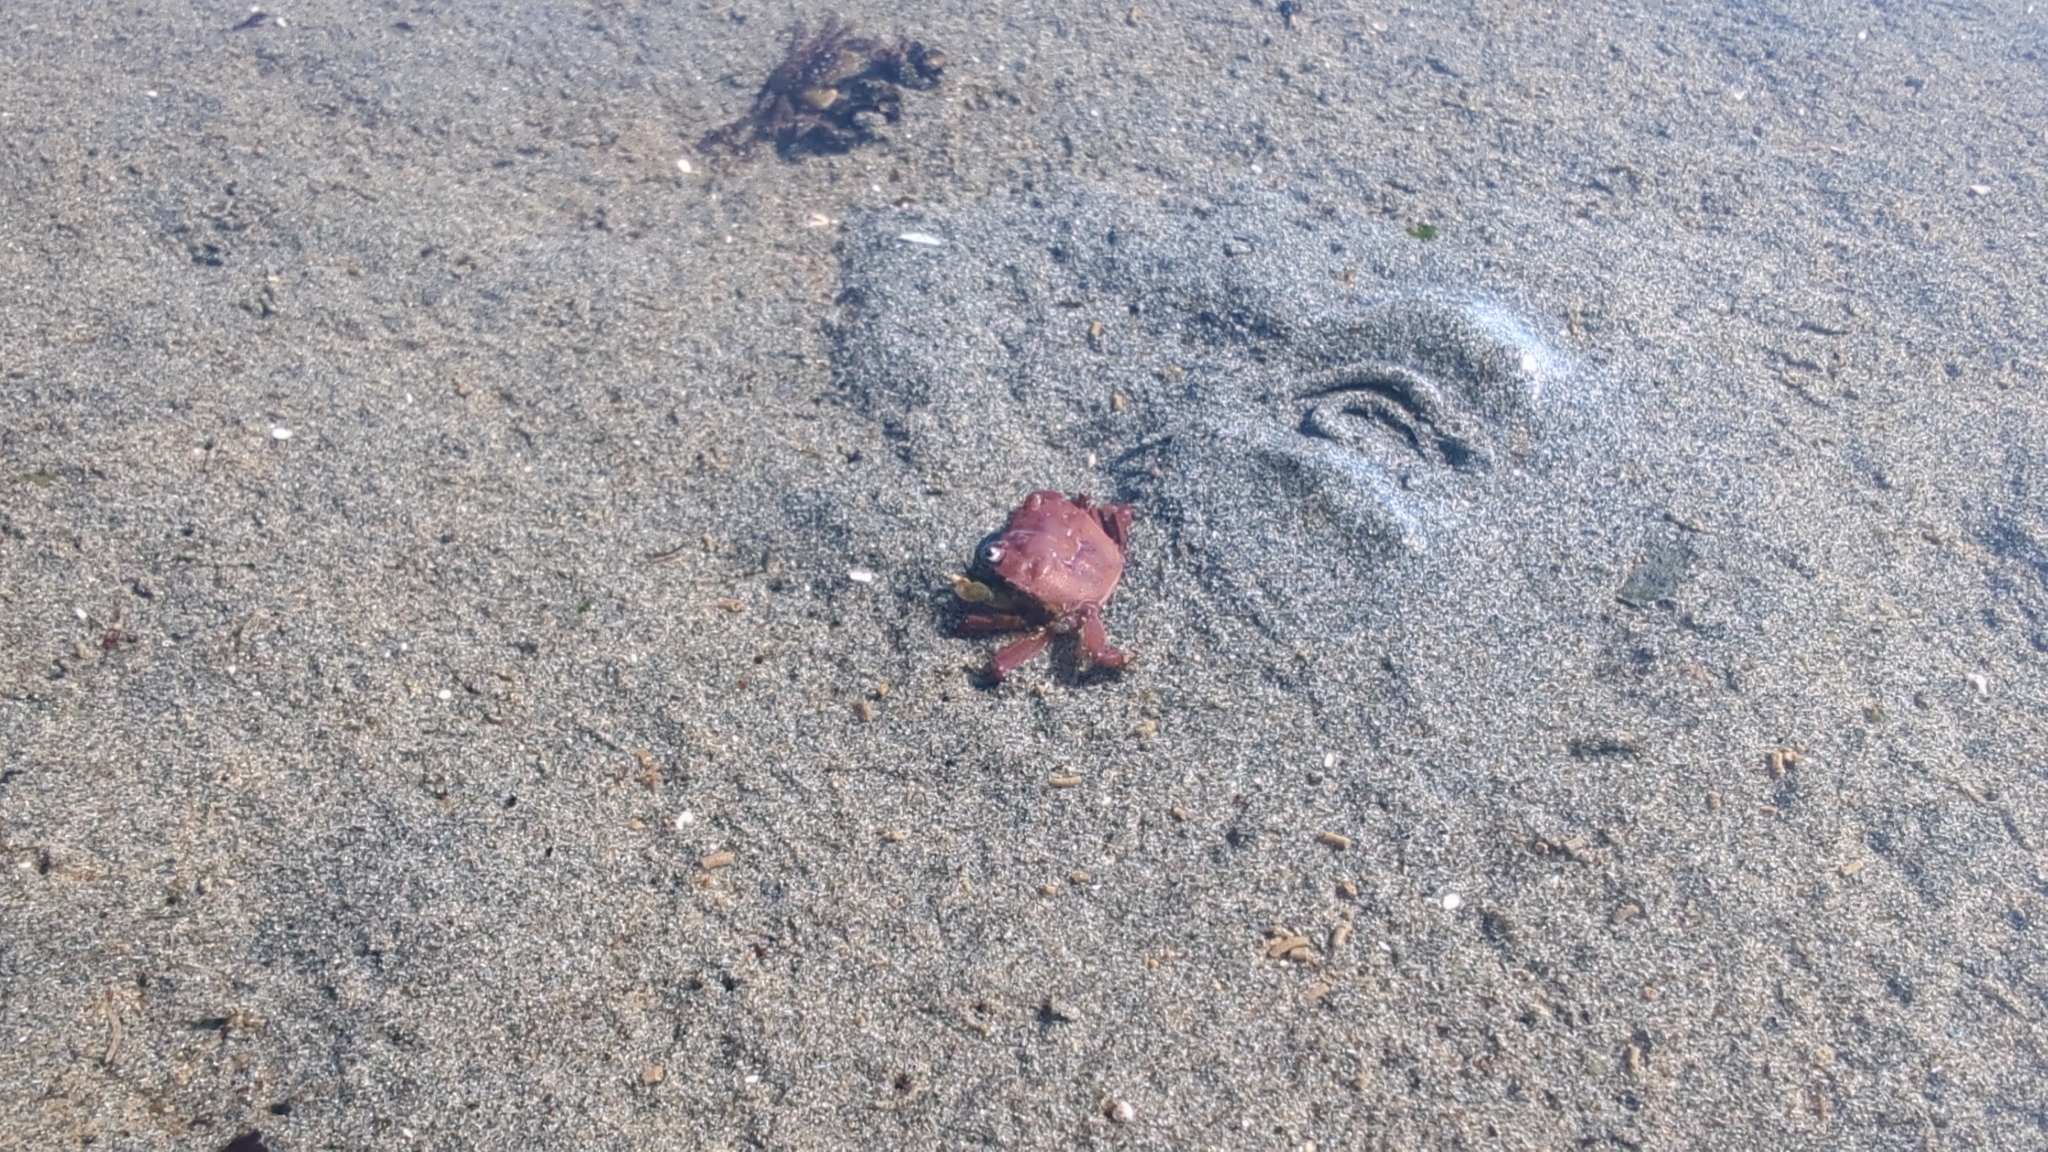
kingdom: Animalia
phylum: Arthropoda
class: Malacostraca
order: Decapoda
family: Varunidae
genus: Hemigrapsus
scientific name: Hemigrapsus oregonensis
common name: Yellow shore crab
